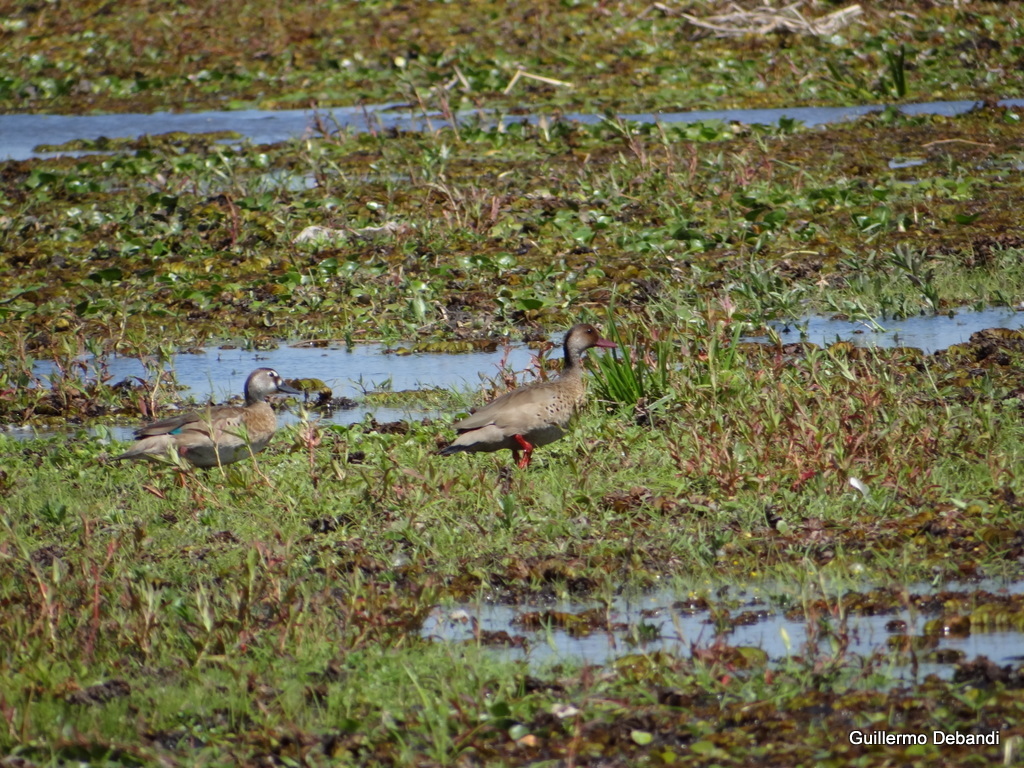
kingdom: Animalia
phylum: Chordata
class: Aves
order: Anseriformes
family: Anatidae
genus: Amazonetta
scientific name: Amazonetta brasiliensis
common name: Brazilian teal
